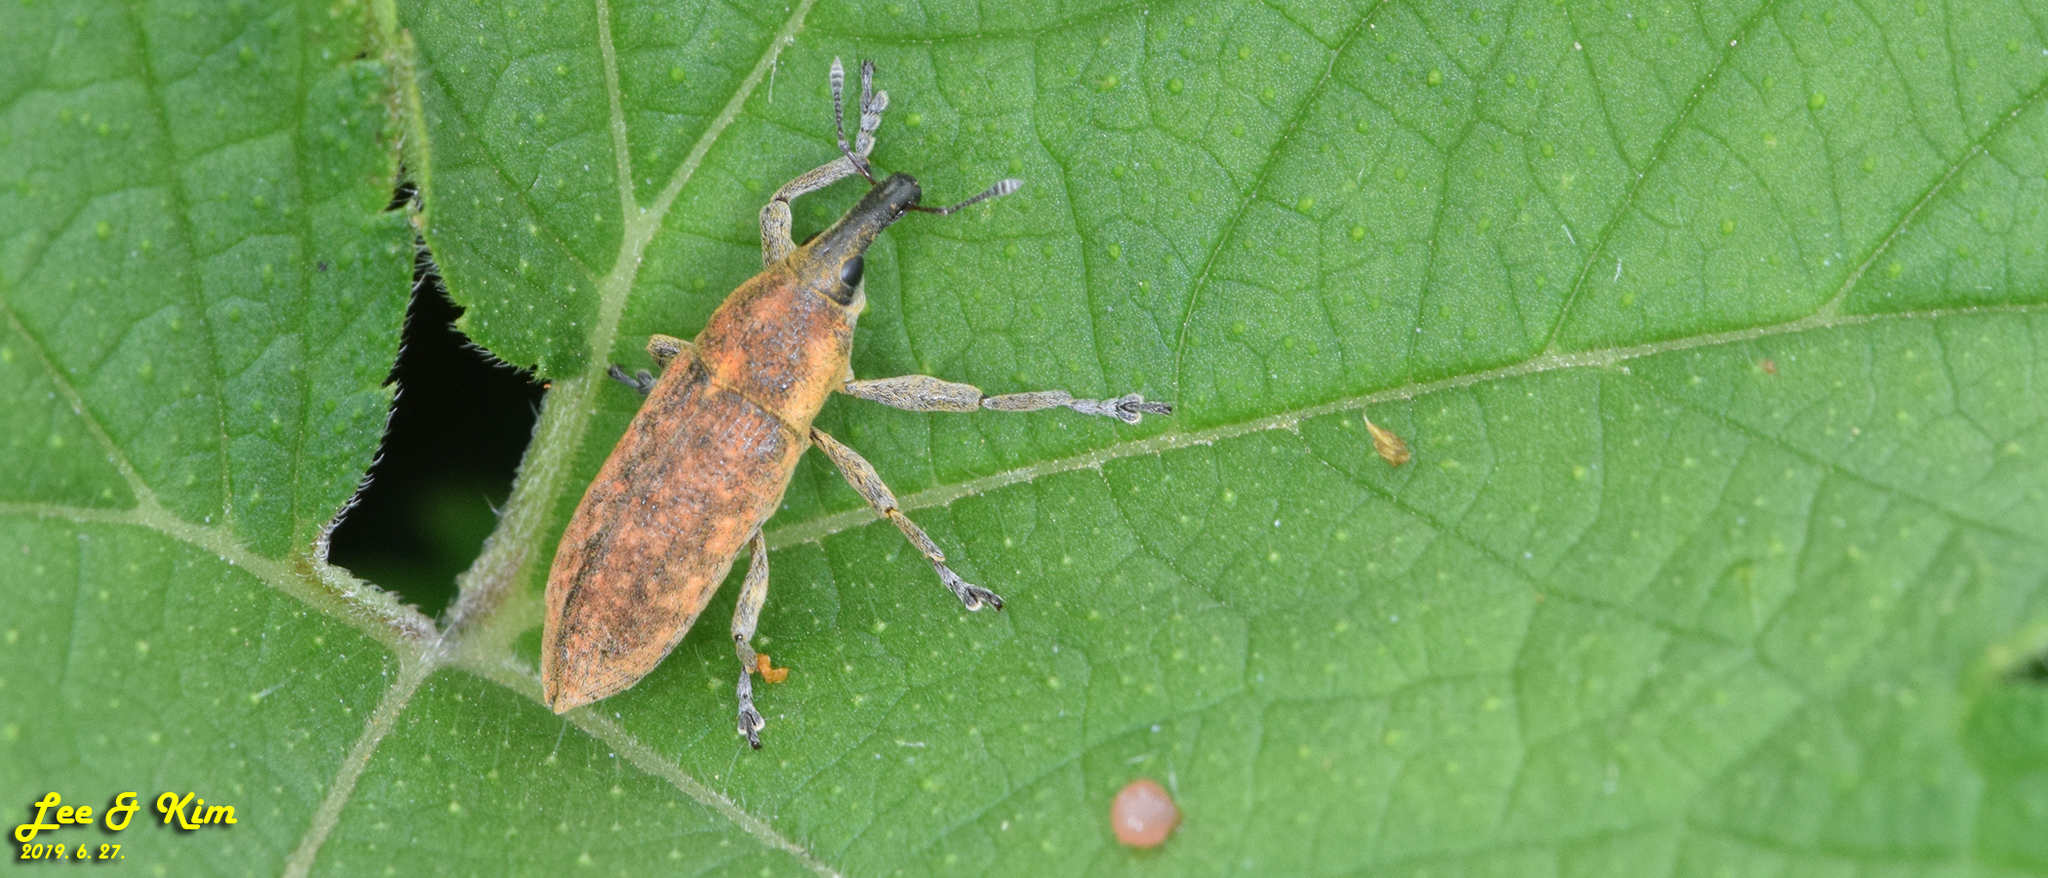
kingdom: Animalia
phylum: Arthropoda
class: Insecta
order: Coleoptera
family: Curculionidae
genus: Lixus
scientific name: Lixus impressiventris
